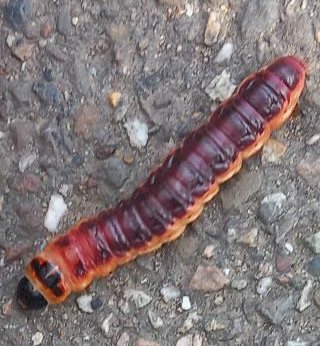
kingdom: Animalia
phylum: Arthropoda
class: Insecta
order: Lepidoptera
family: Cossidae
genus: Cossus
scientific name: Cossus cossus
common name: Goat moth
